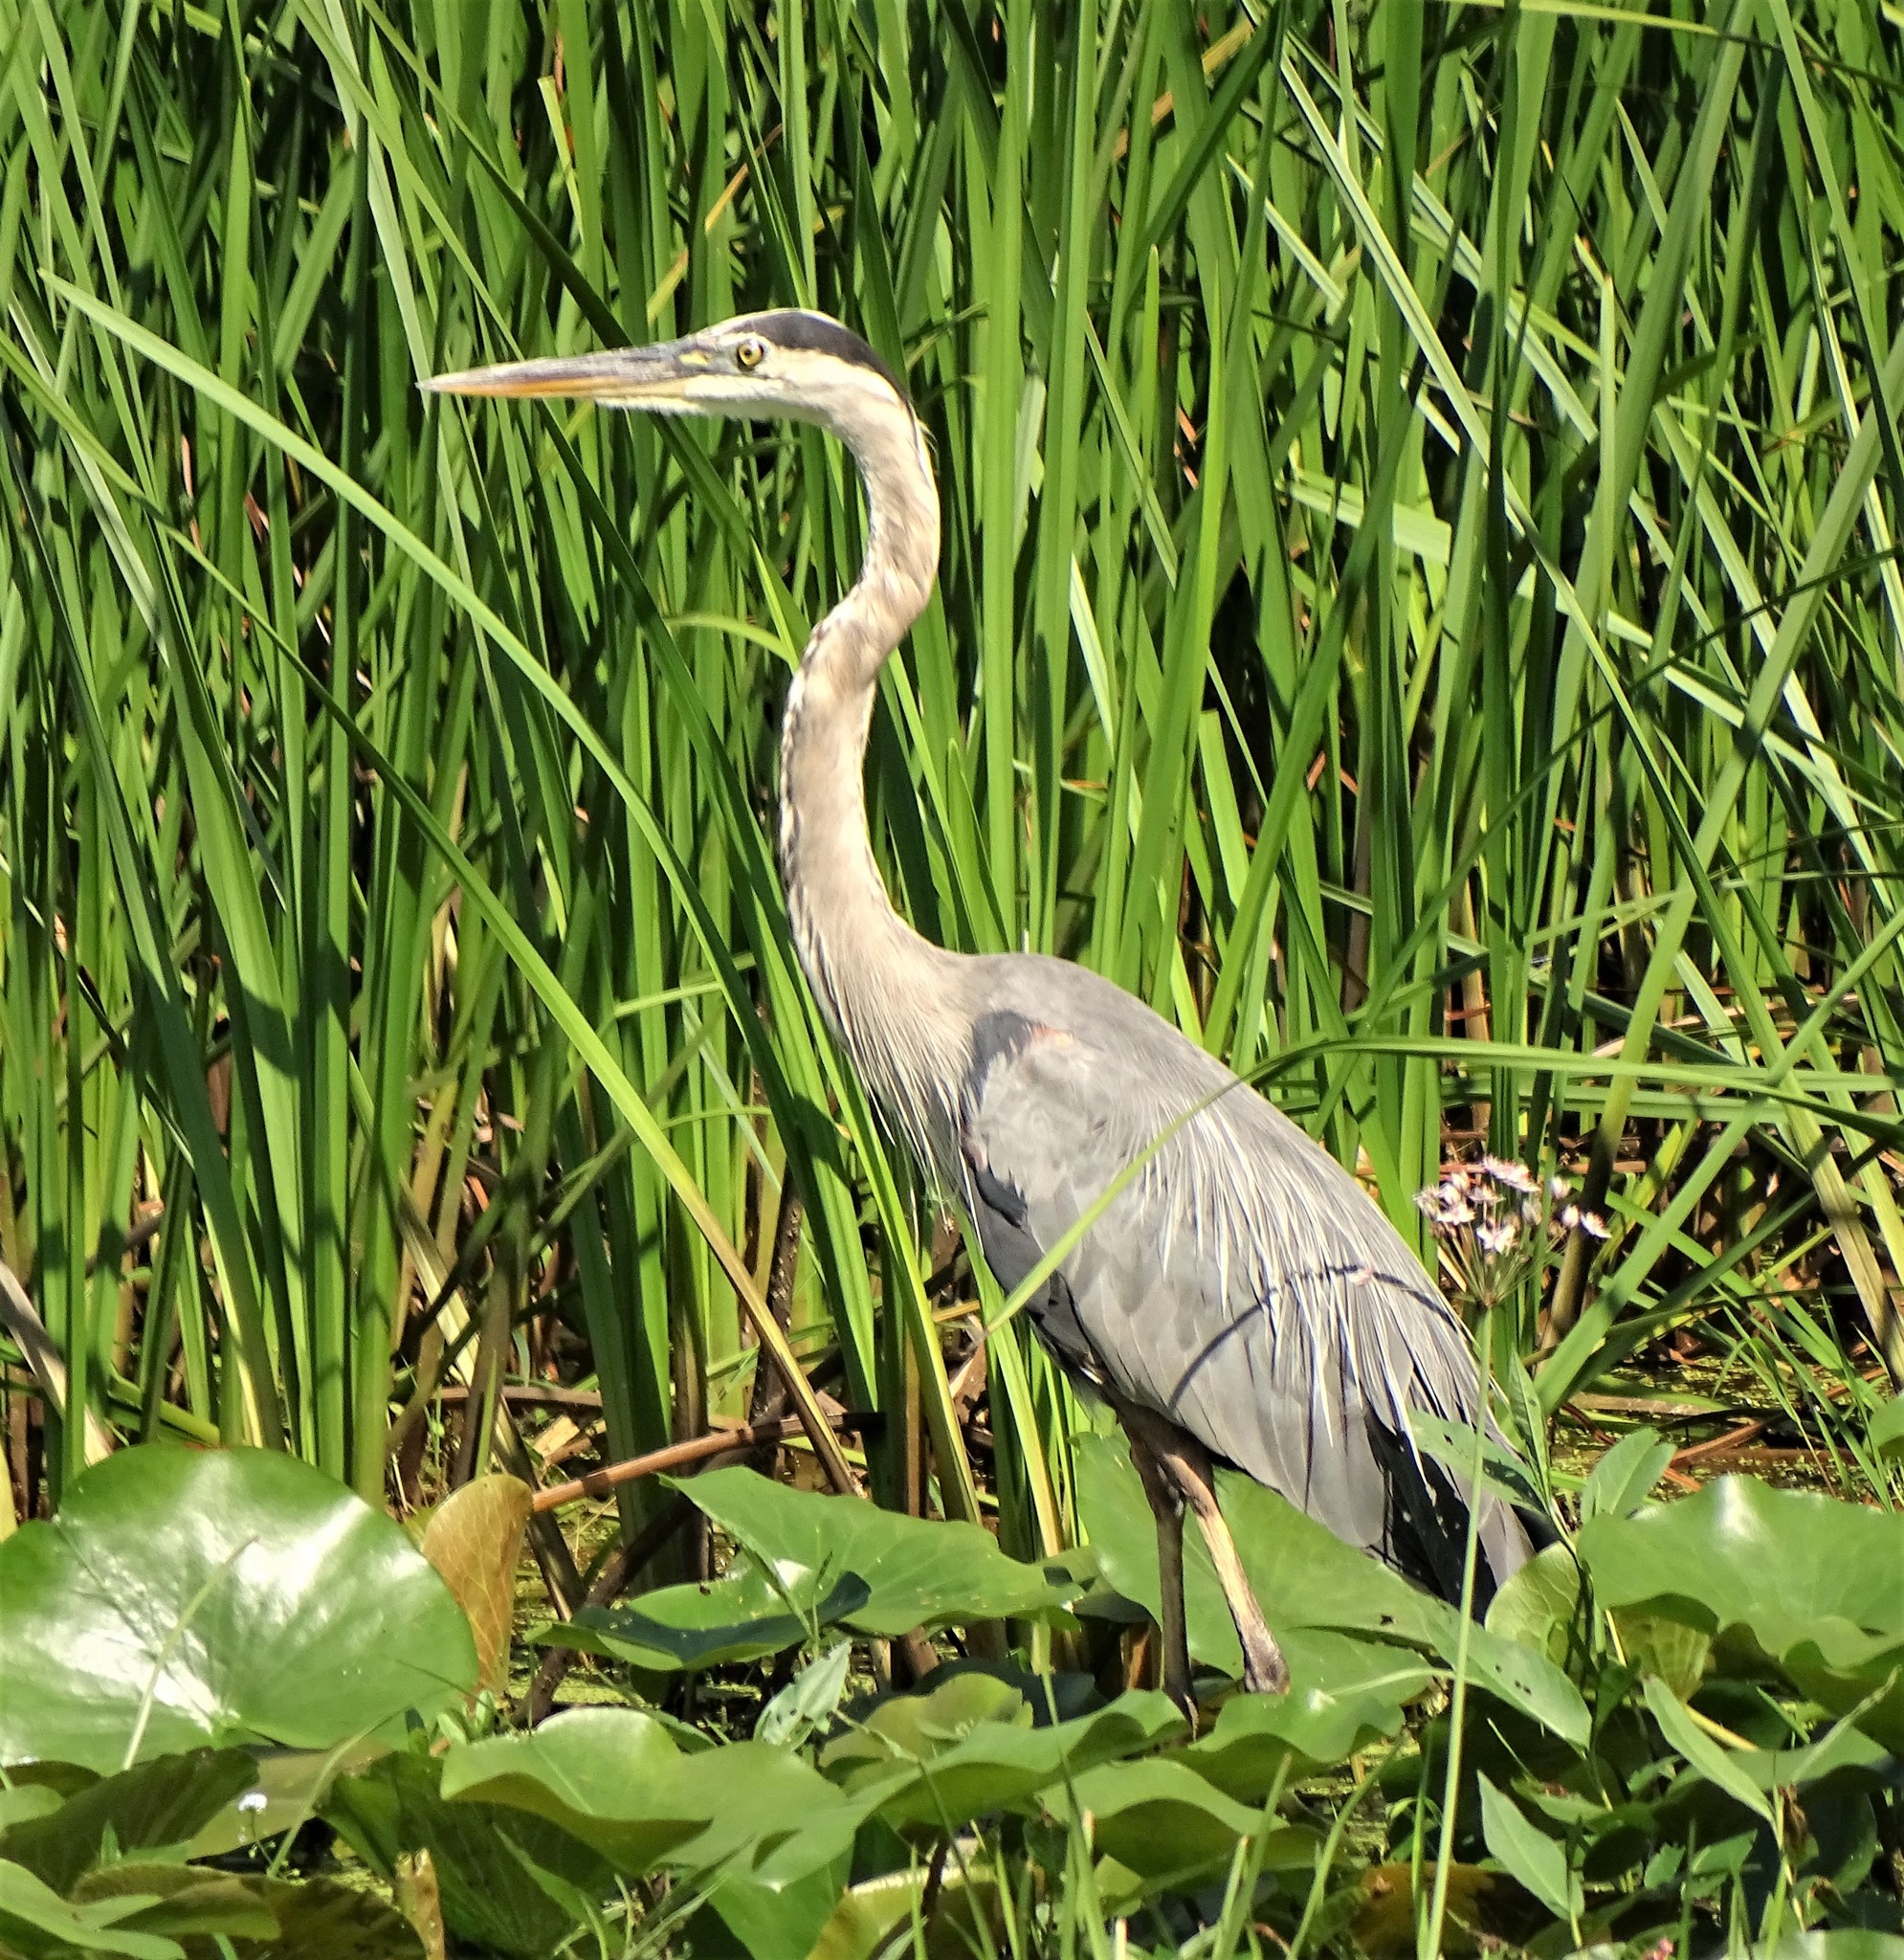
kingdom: Animalia
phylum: Chordata
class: Aves
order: Pelecaniformes
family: Ardeidae
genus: Ardea
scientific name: Ardea herodias
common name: Great blue heron
